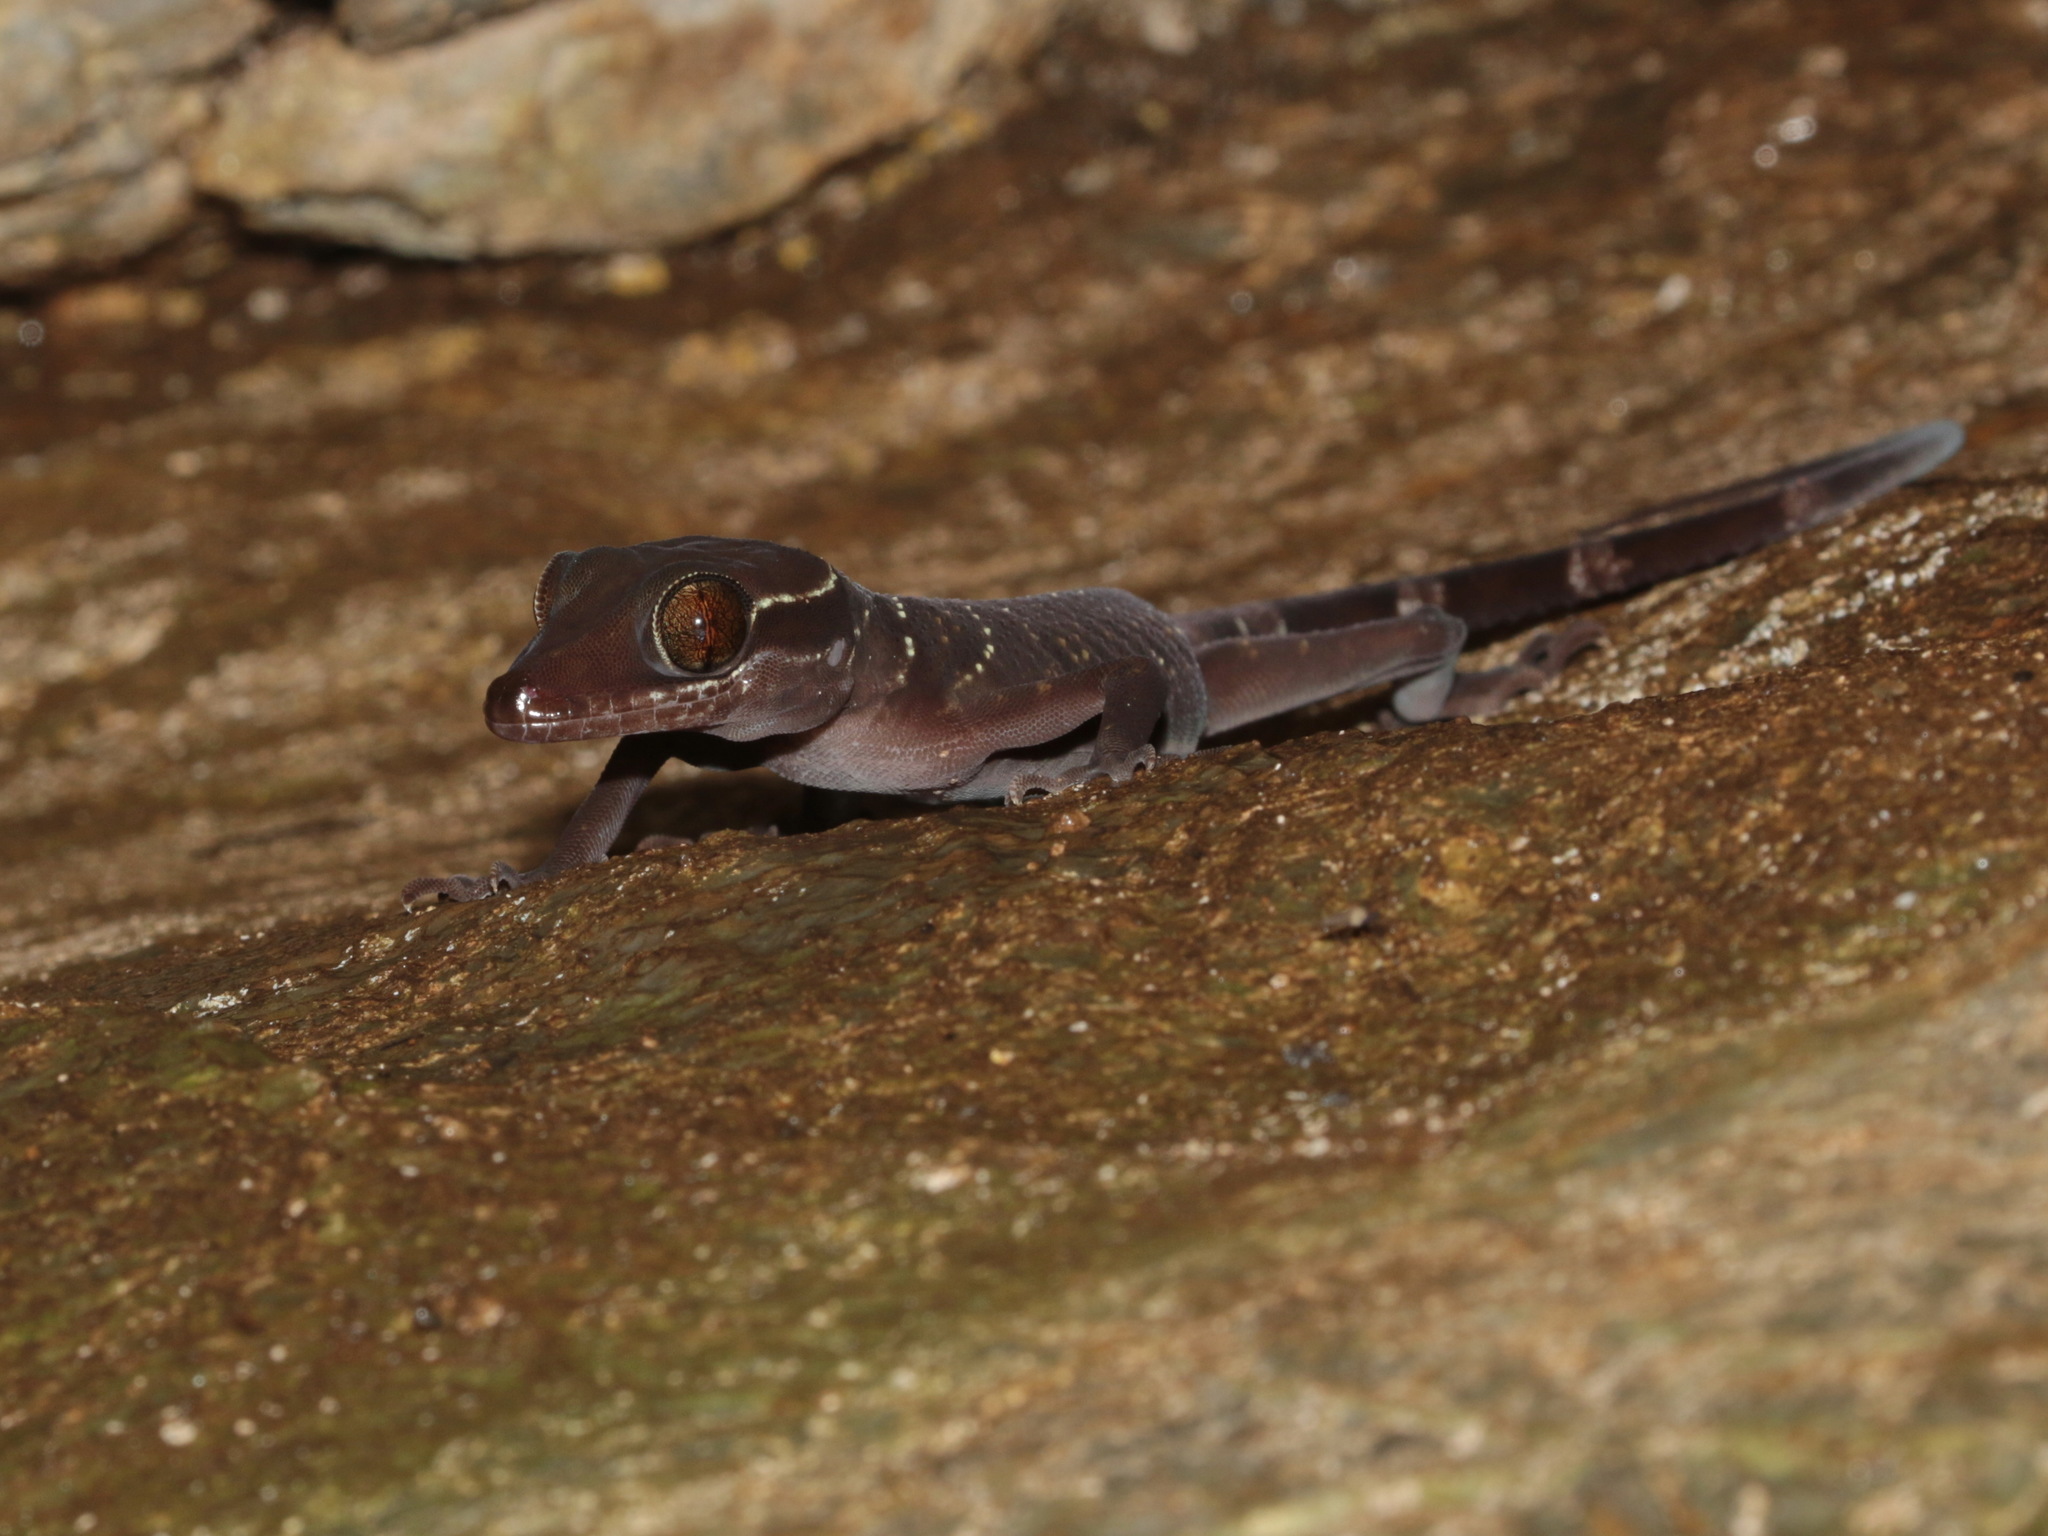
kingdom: Animalia
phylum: Chordata
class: Squamata
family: Gekkonidae
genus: Cyrtodactylus
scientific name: Cyrtodactylus astrum
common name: Starry bent-toed gecko
